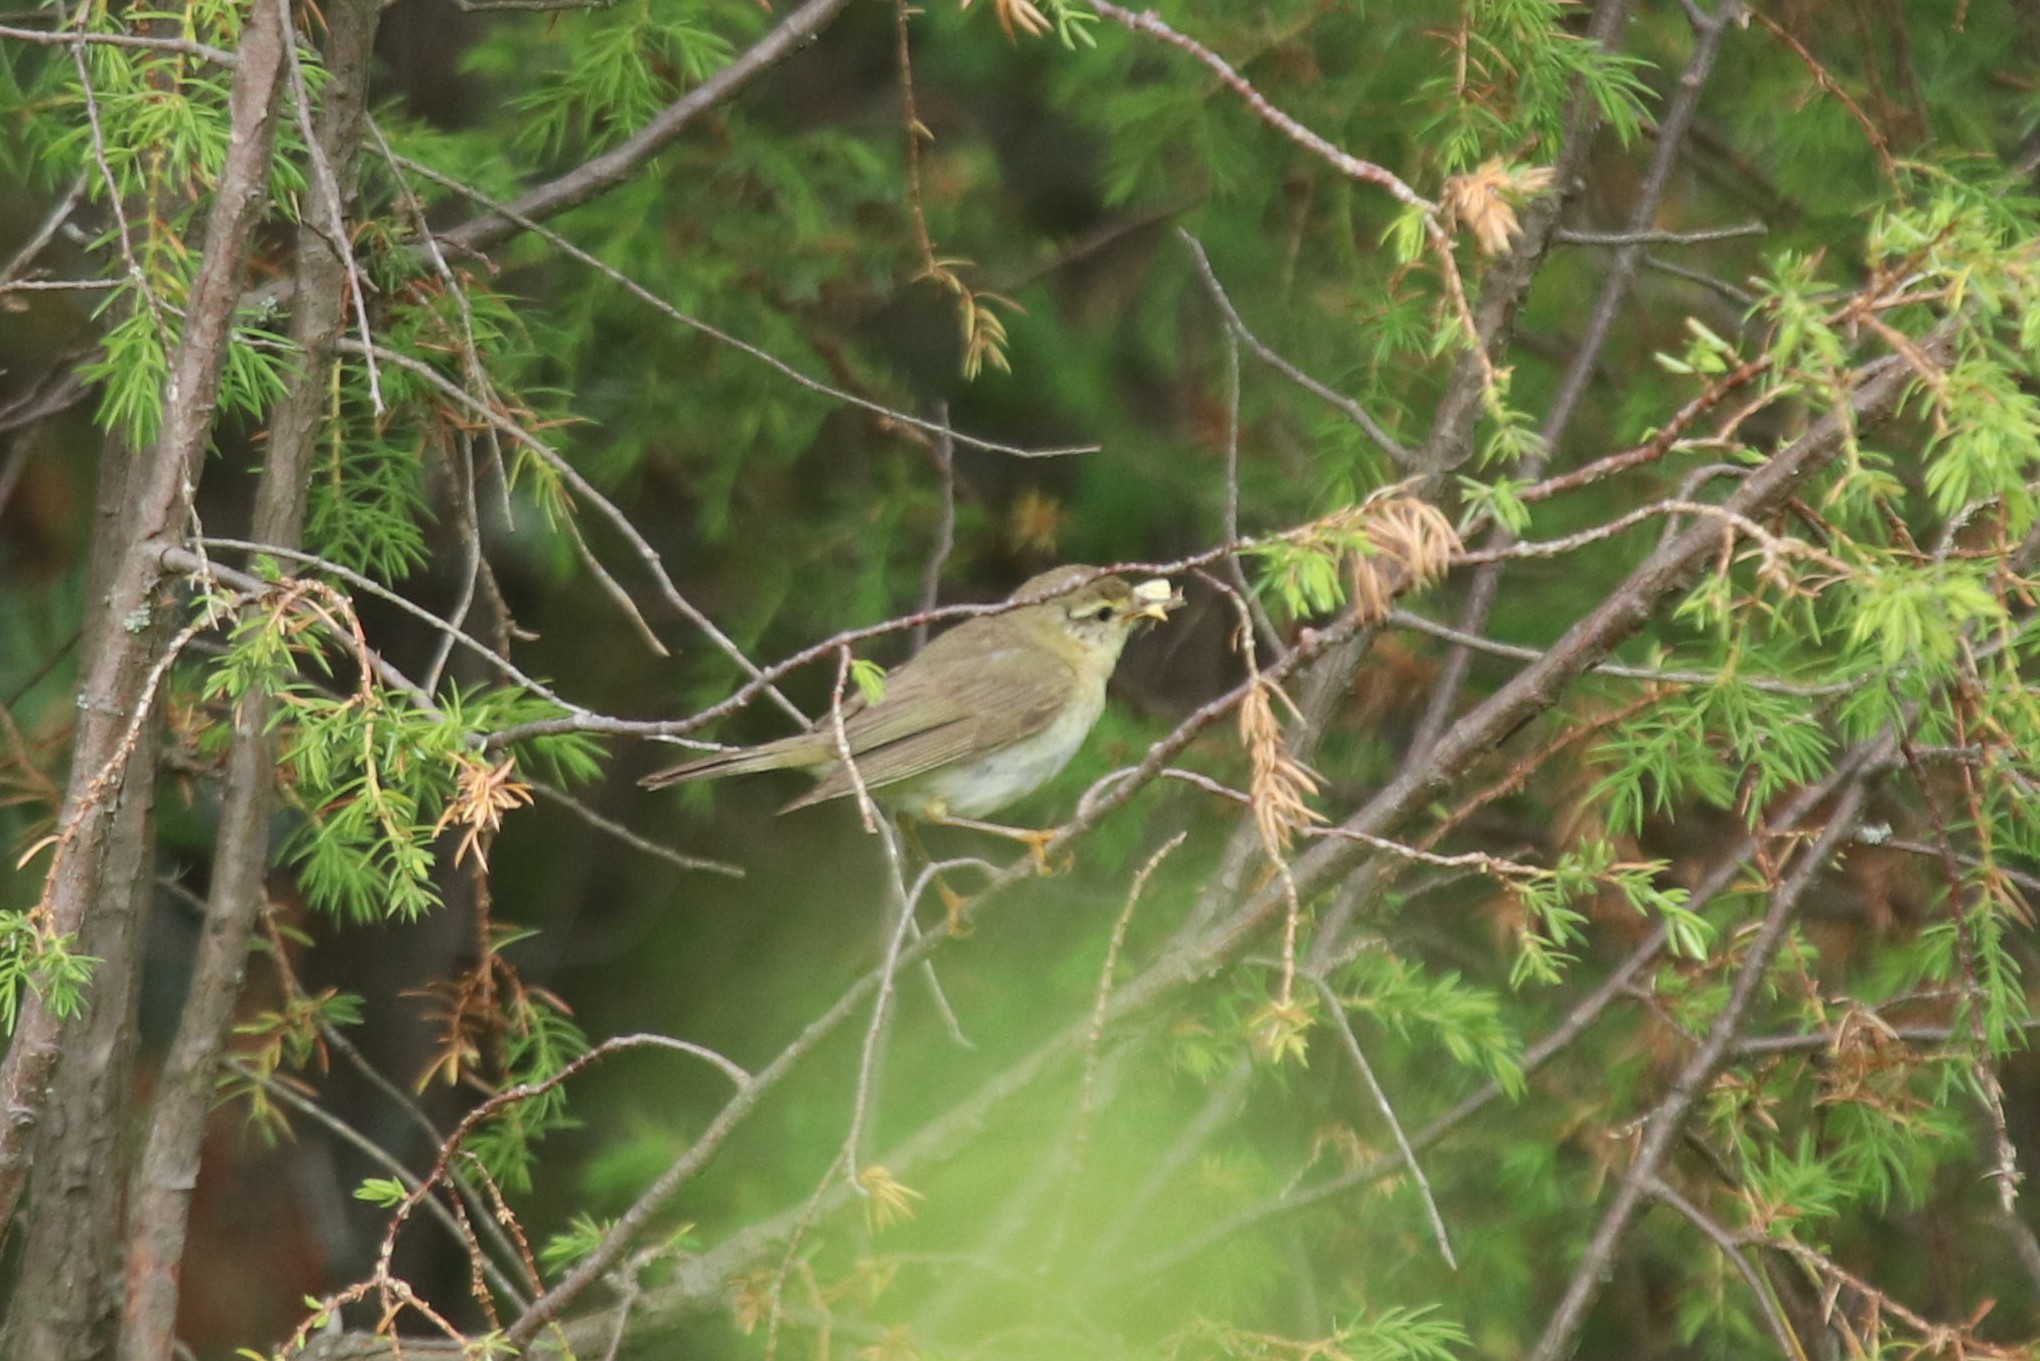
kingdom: Animalia
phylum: Chordata
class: Aves
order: Passeriformes
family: Phylloscopidae
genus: Phylloscopus
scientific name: Phylloscopus trochilus
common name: Willow warbler
